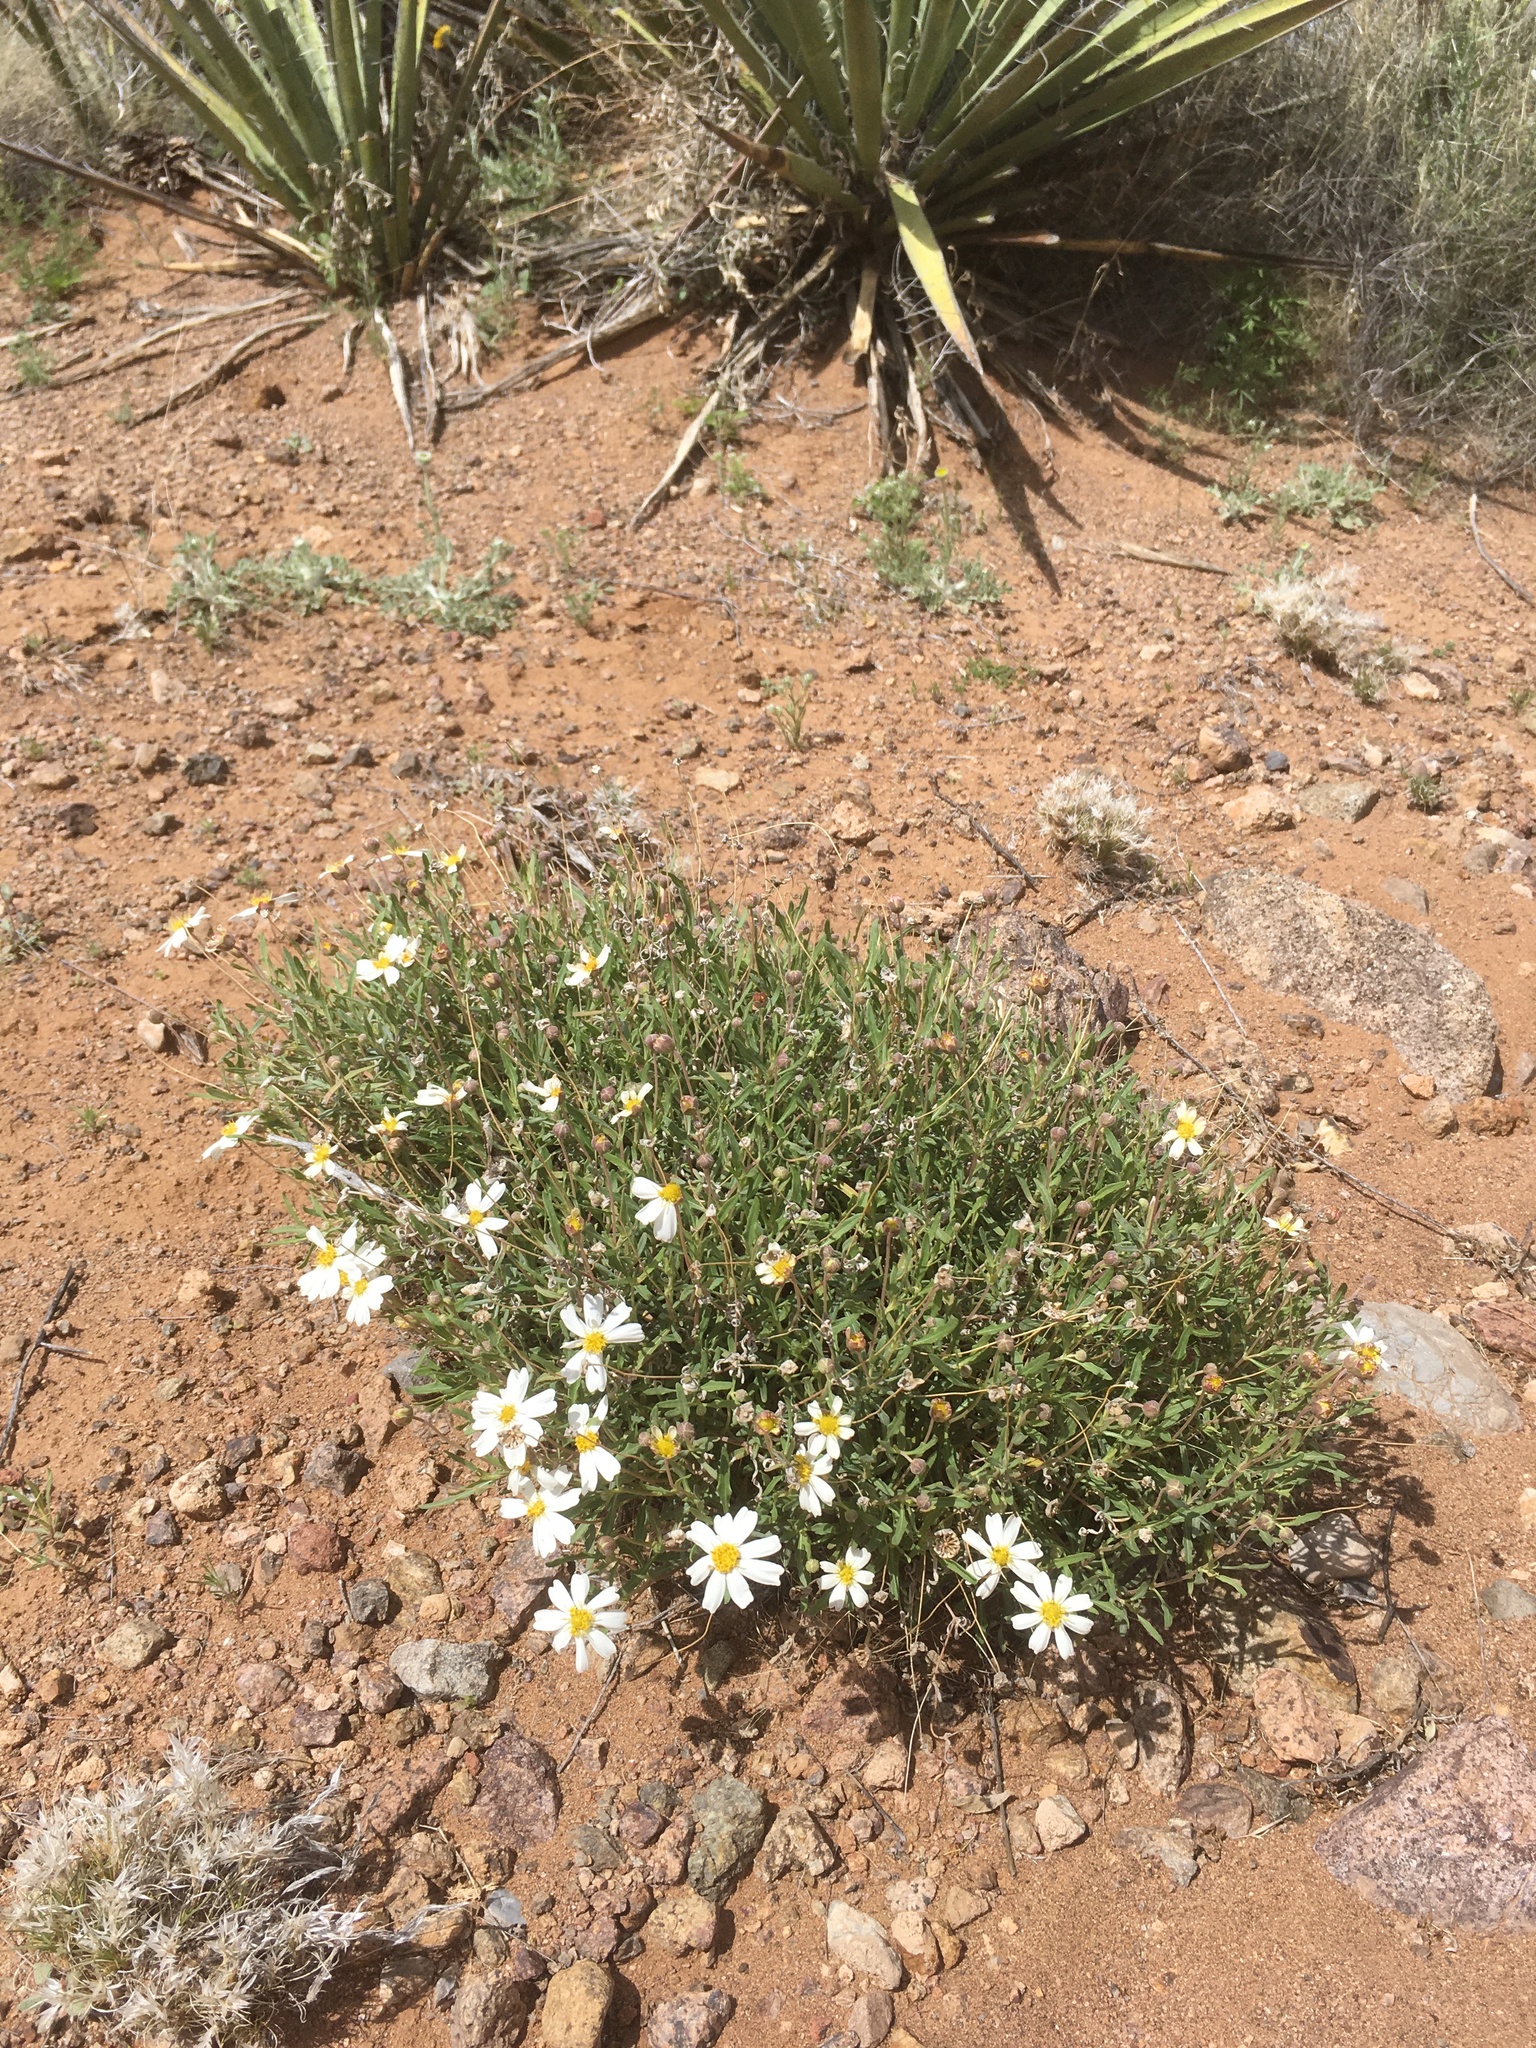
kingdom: Plantae
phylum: Tracheophyta
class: Magnoliopsida
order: Asterales
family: Asteraceae
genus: Melampodium
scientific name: Melampodium leucanthum
